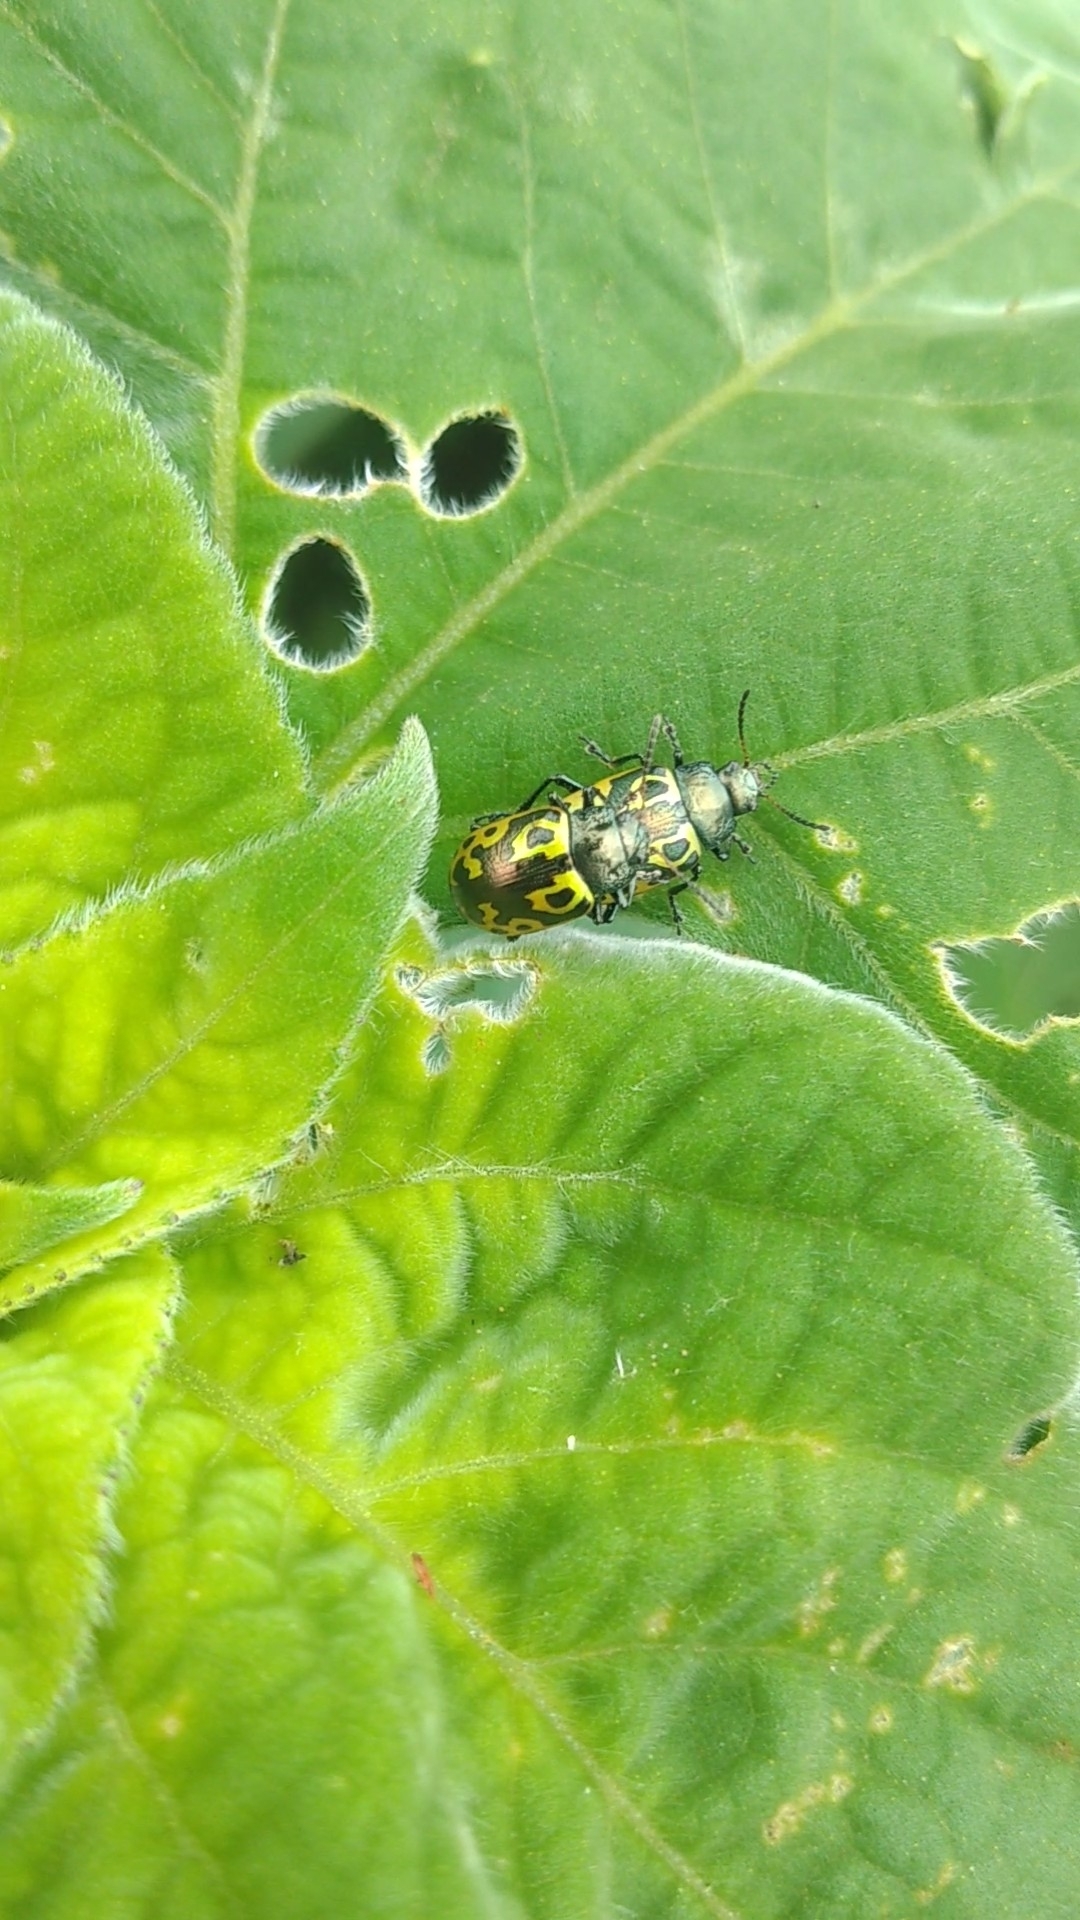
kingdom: Animalia
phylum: Arthropoda
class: Insecta
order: Coleoptera
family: Chrysomelidae
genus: Calligrapha
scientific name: Calligrapha
